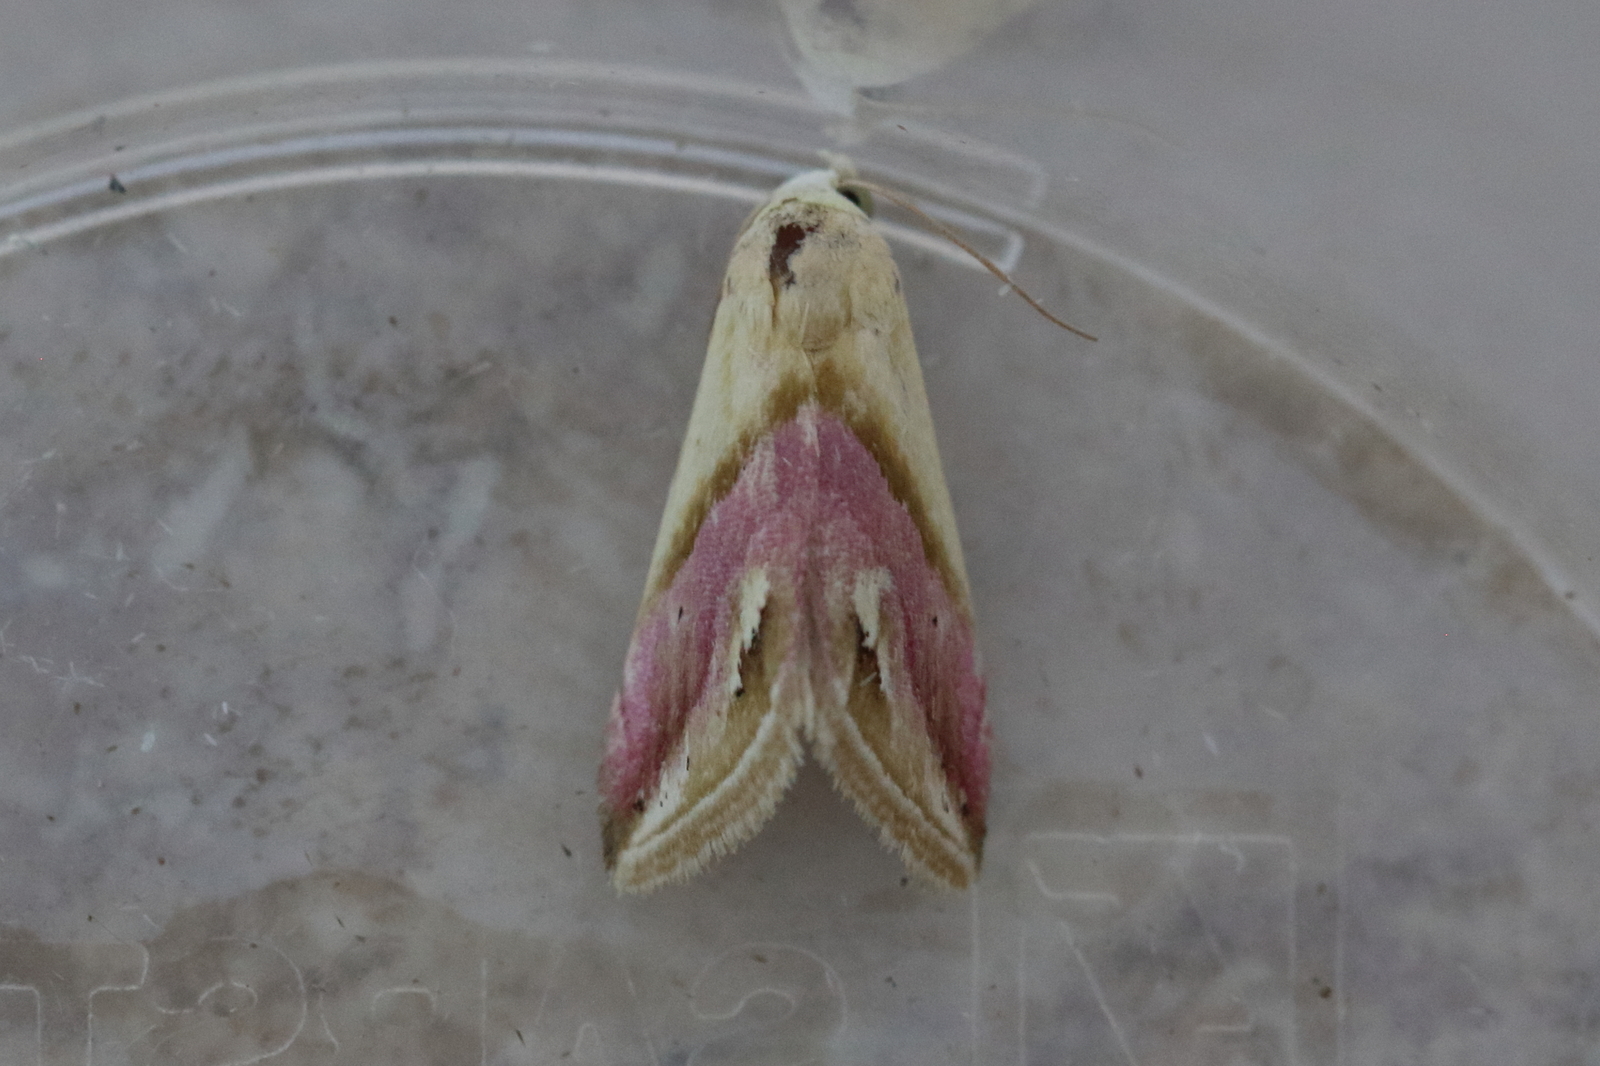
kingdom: Animalia
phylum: Arthropoda
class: Insecta
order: Lepidoptera
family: Noctuidae
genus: Eublemma
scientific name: Eublemma cochylioides
